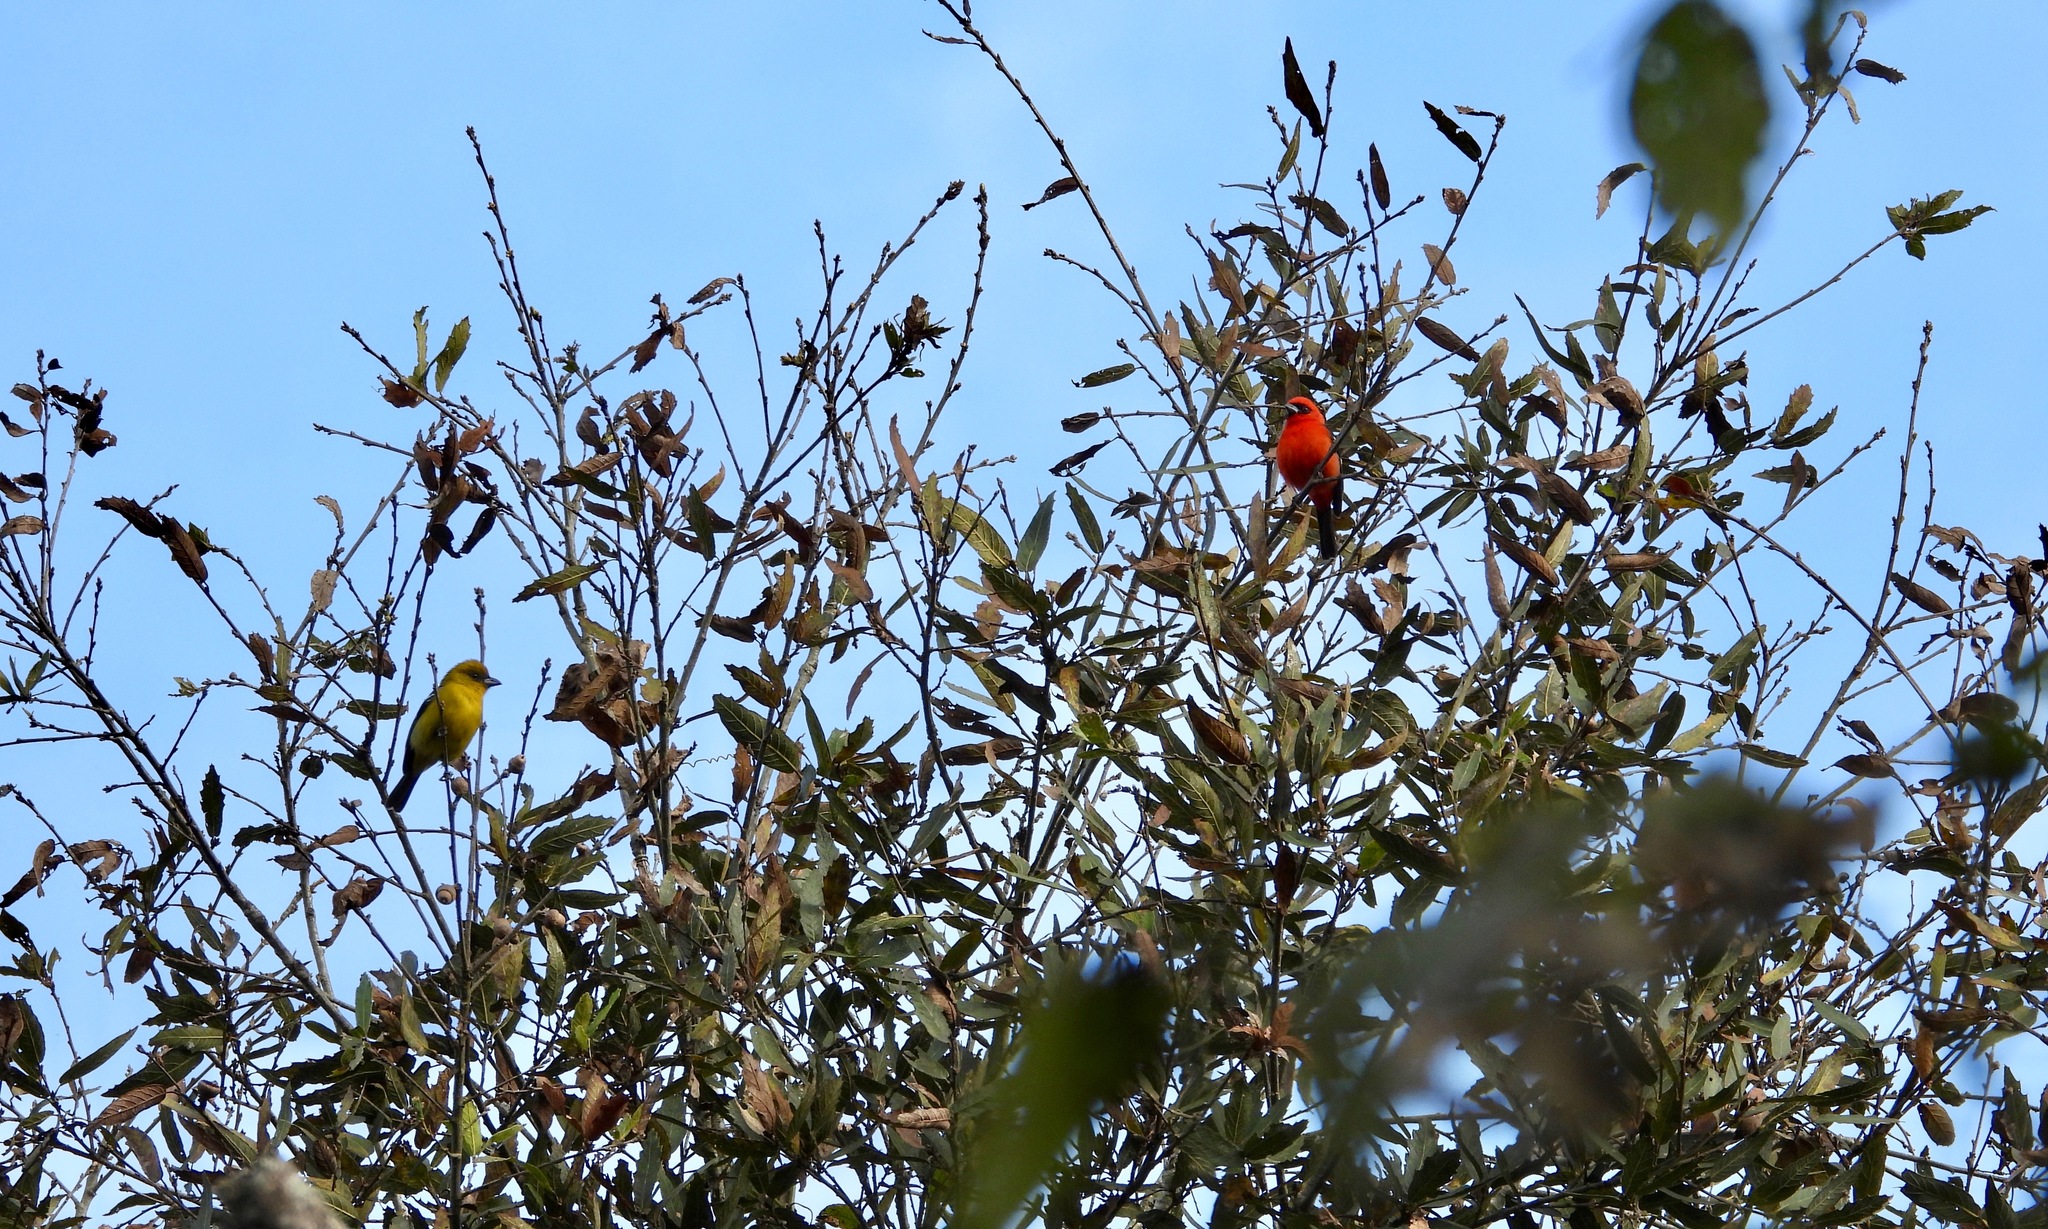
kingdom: Animalia
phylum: Chordata
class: Aves
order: Passeriformes
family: Cardinalidae
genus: Piranga
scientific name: Piranga leucoptera
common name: White-winged tanager
